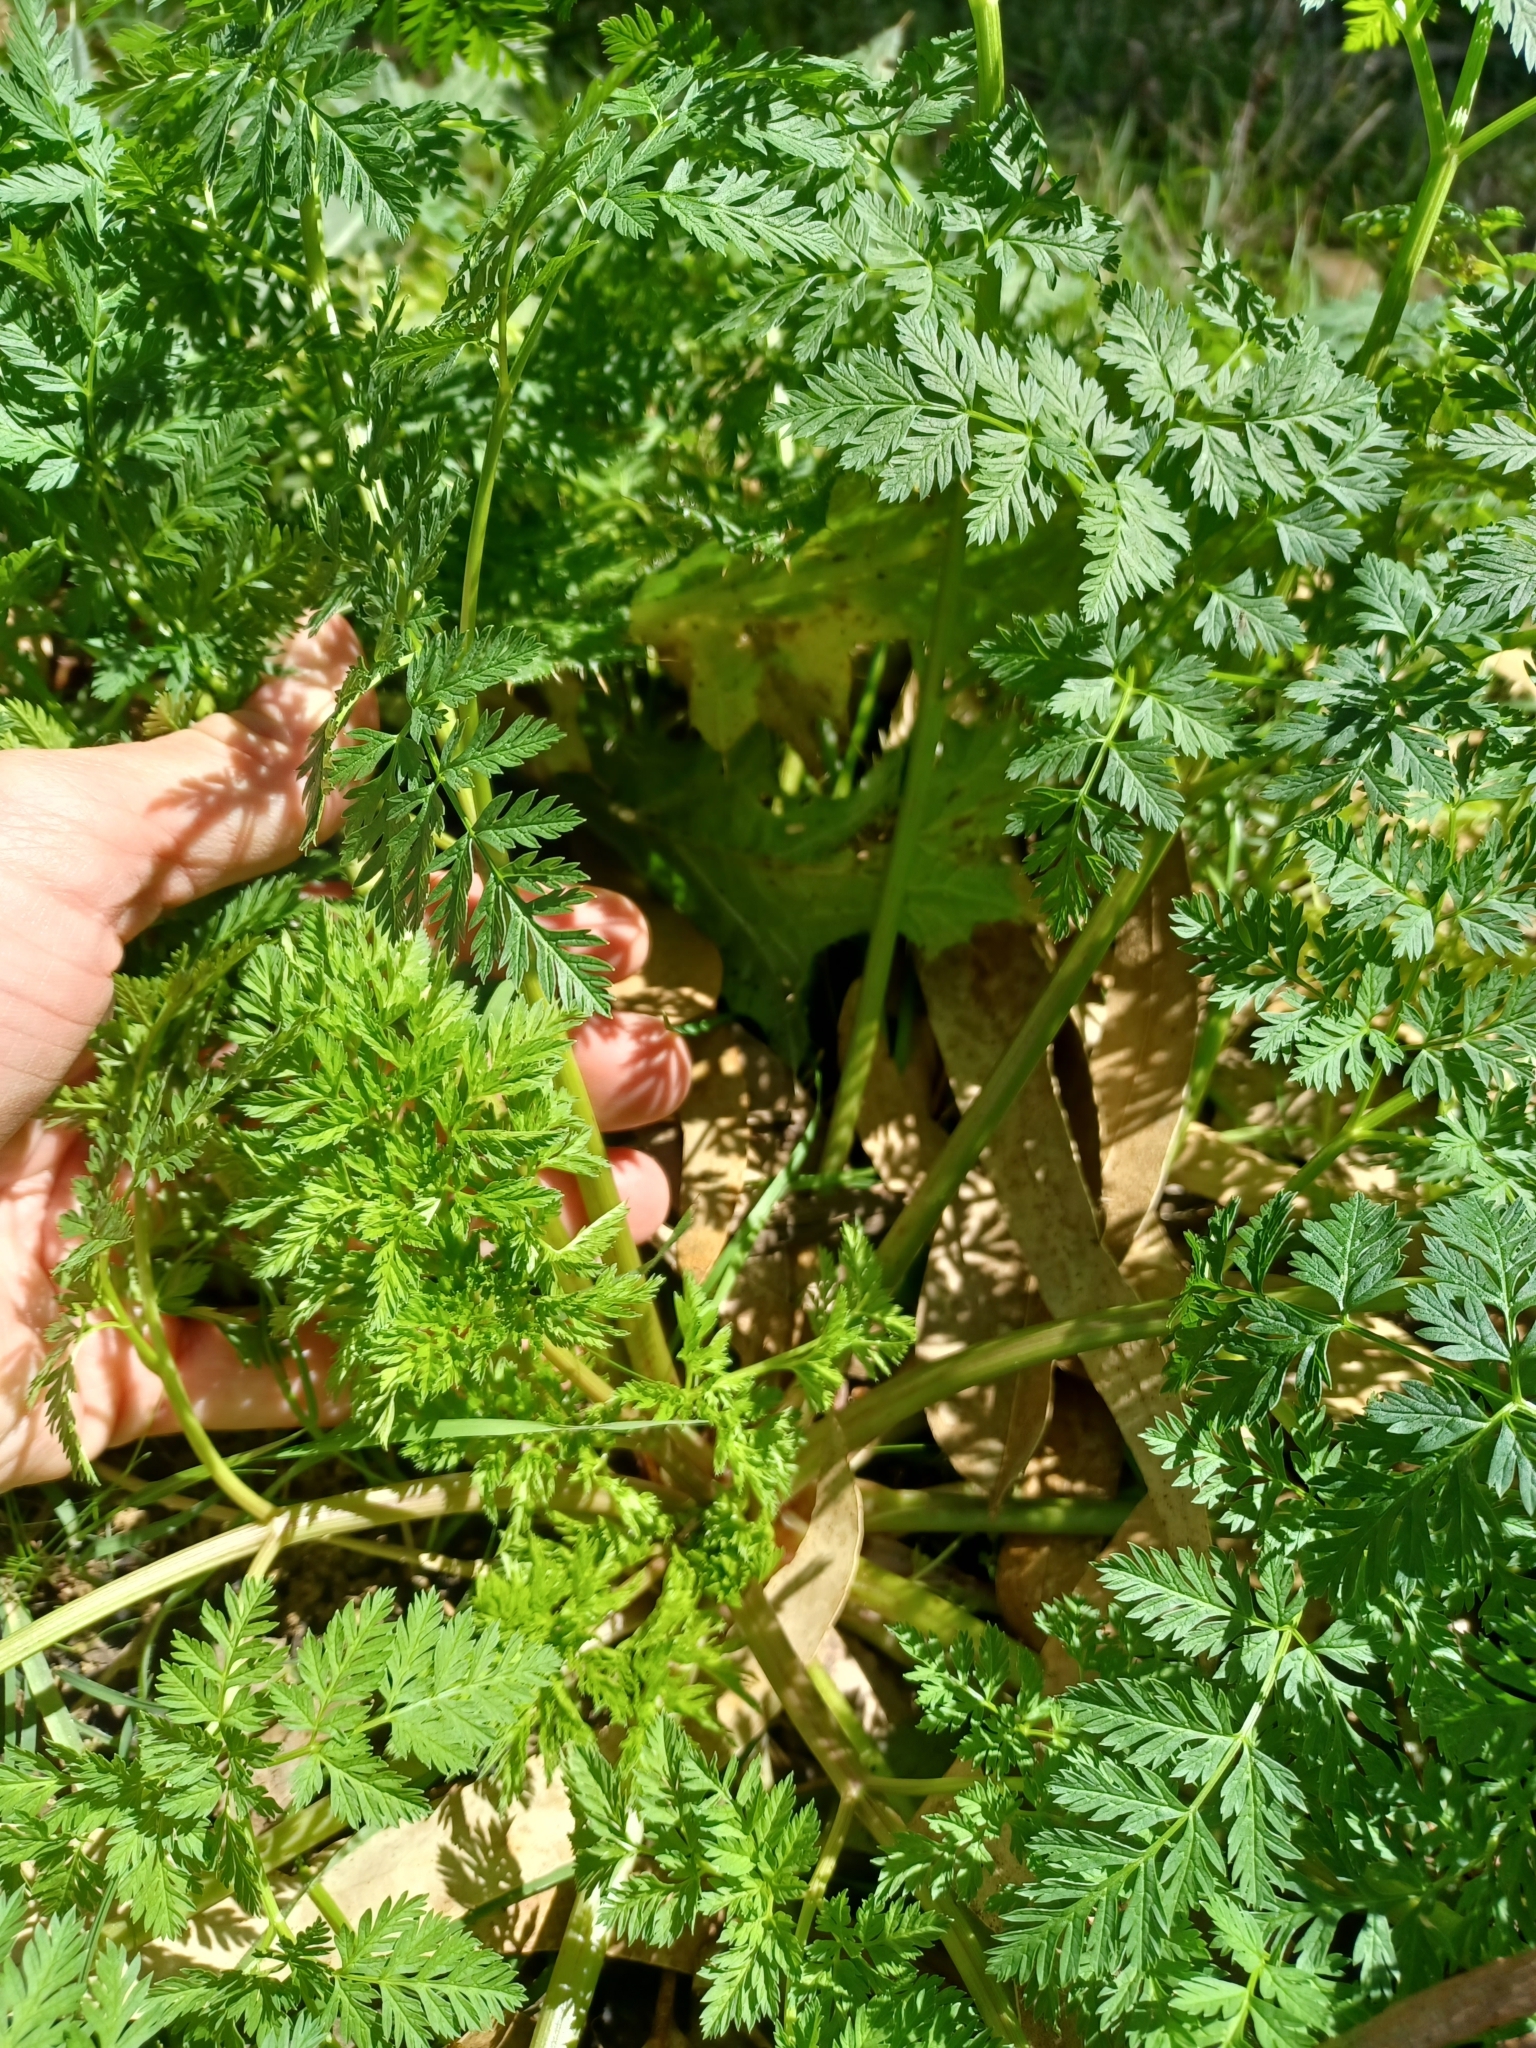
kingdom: Plantae
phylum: Tracheophyta
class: Magnoliopsida
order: Apiales
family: Apiaceae
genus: Conium
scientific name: Conium maculatum
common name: Hemlock
